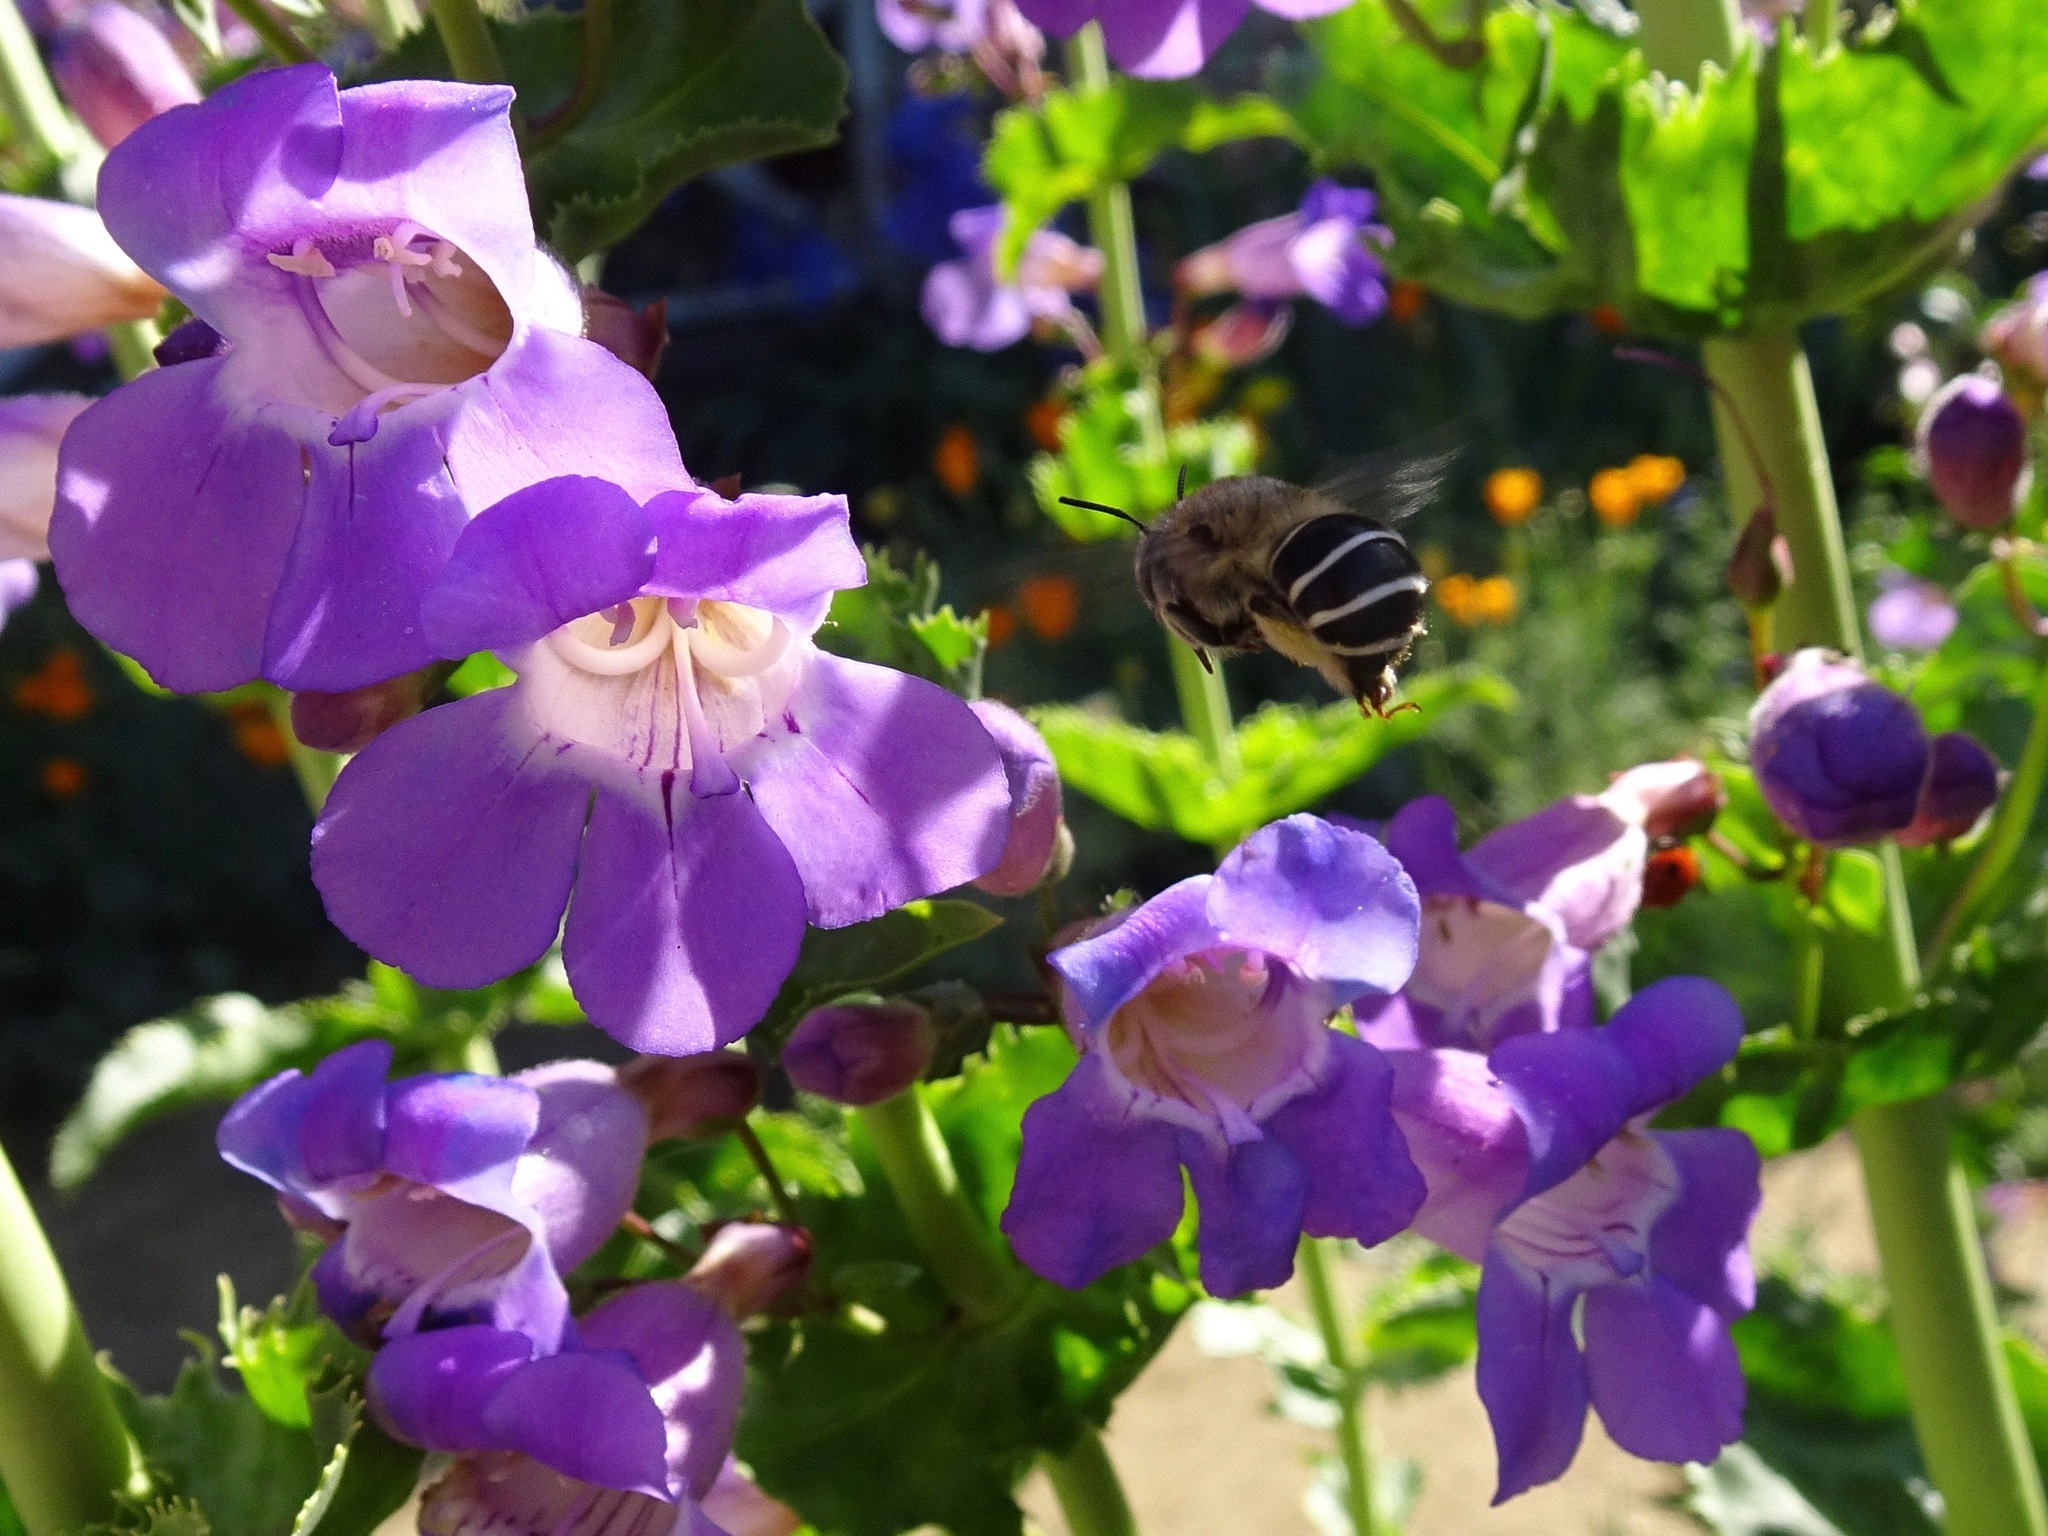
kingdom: Animalia
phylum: Arthropoda
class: Insecta
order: Hymenoptera
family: Apidae
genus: Anthophora
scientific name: Anthophora californica
